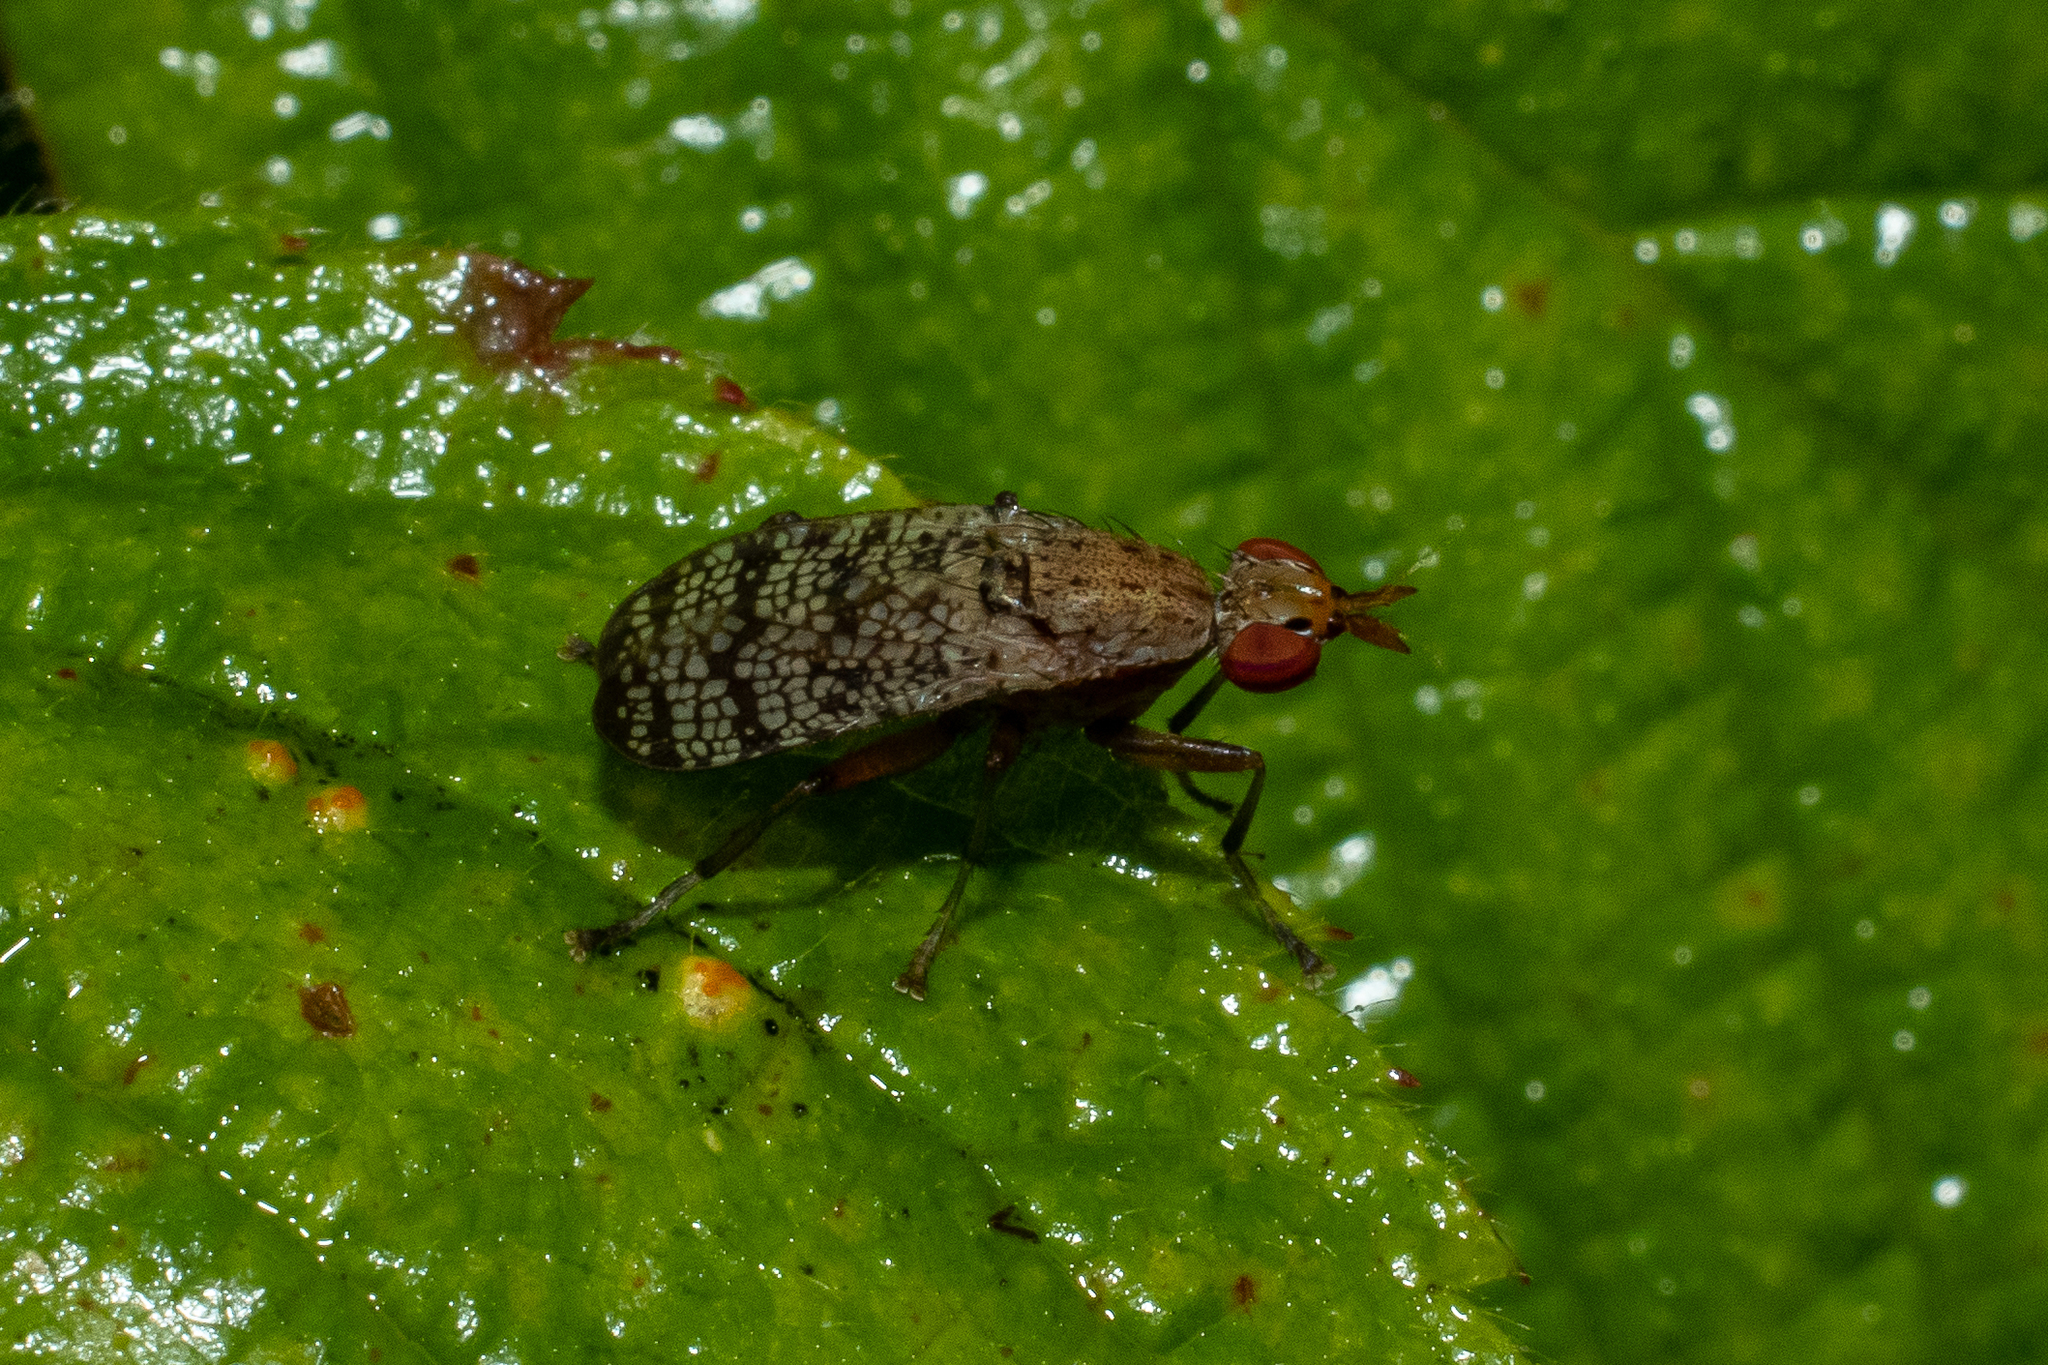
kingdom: Animalia
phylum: Arthropoda
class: Insecta
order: Diptera
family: Sciomyzidae
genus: Euthycera
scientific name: Euthycera flavescens
